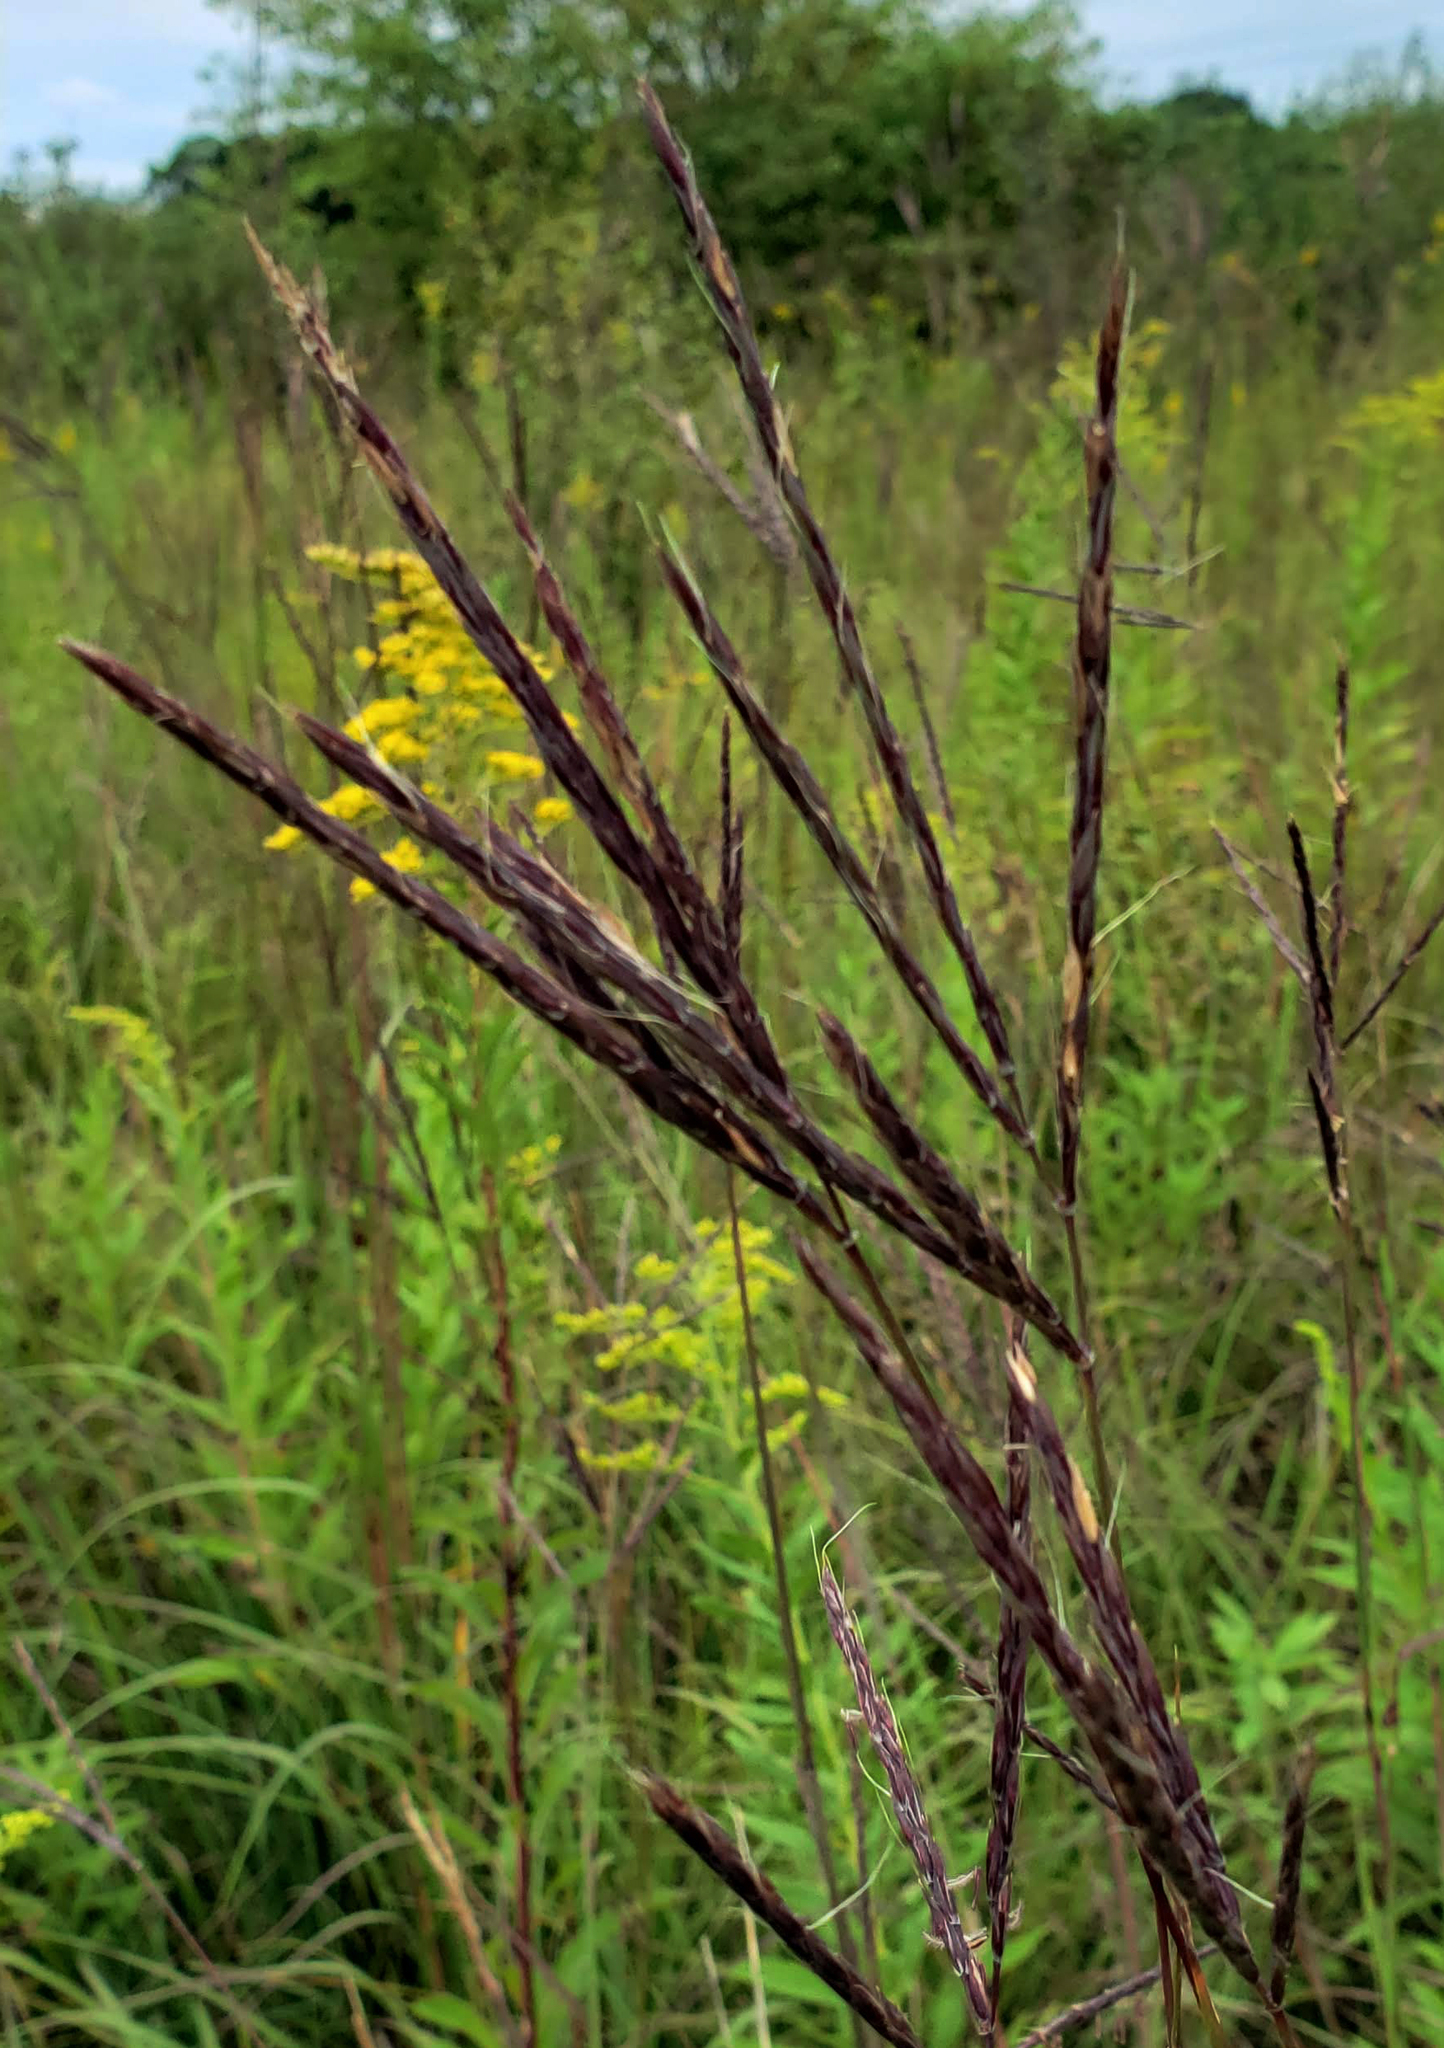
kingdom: Plantae
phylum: Tracheophyta
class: Liliopsida
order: Poales
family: Poaceae
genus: Andropogon
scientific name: Andropogon gerardi
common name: Big bluestem
